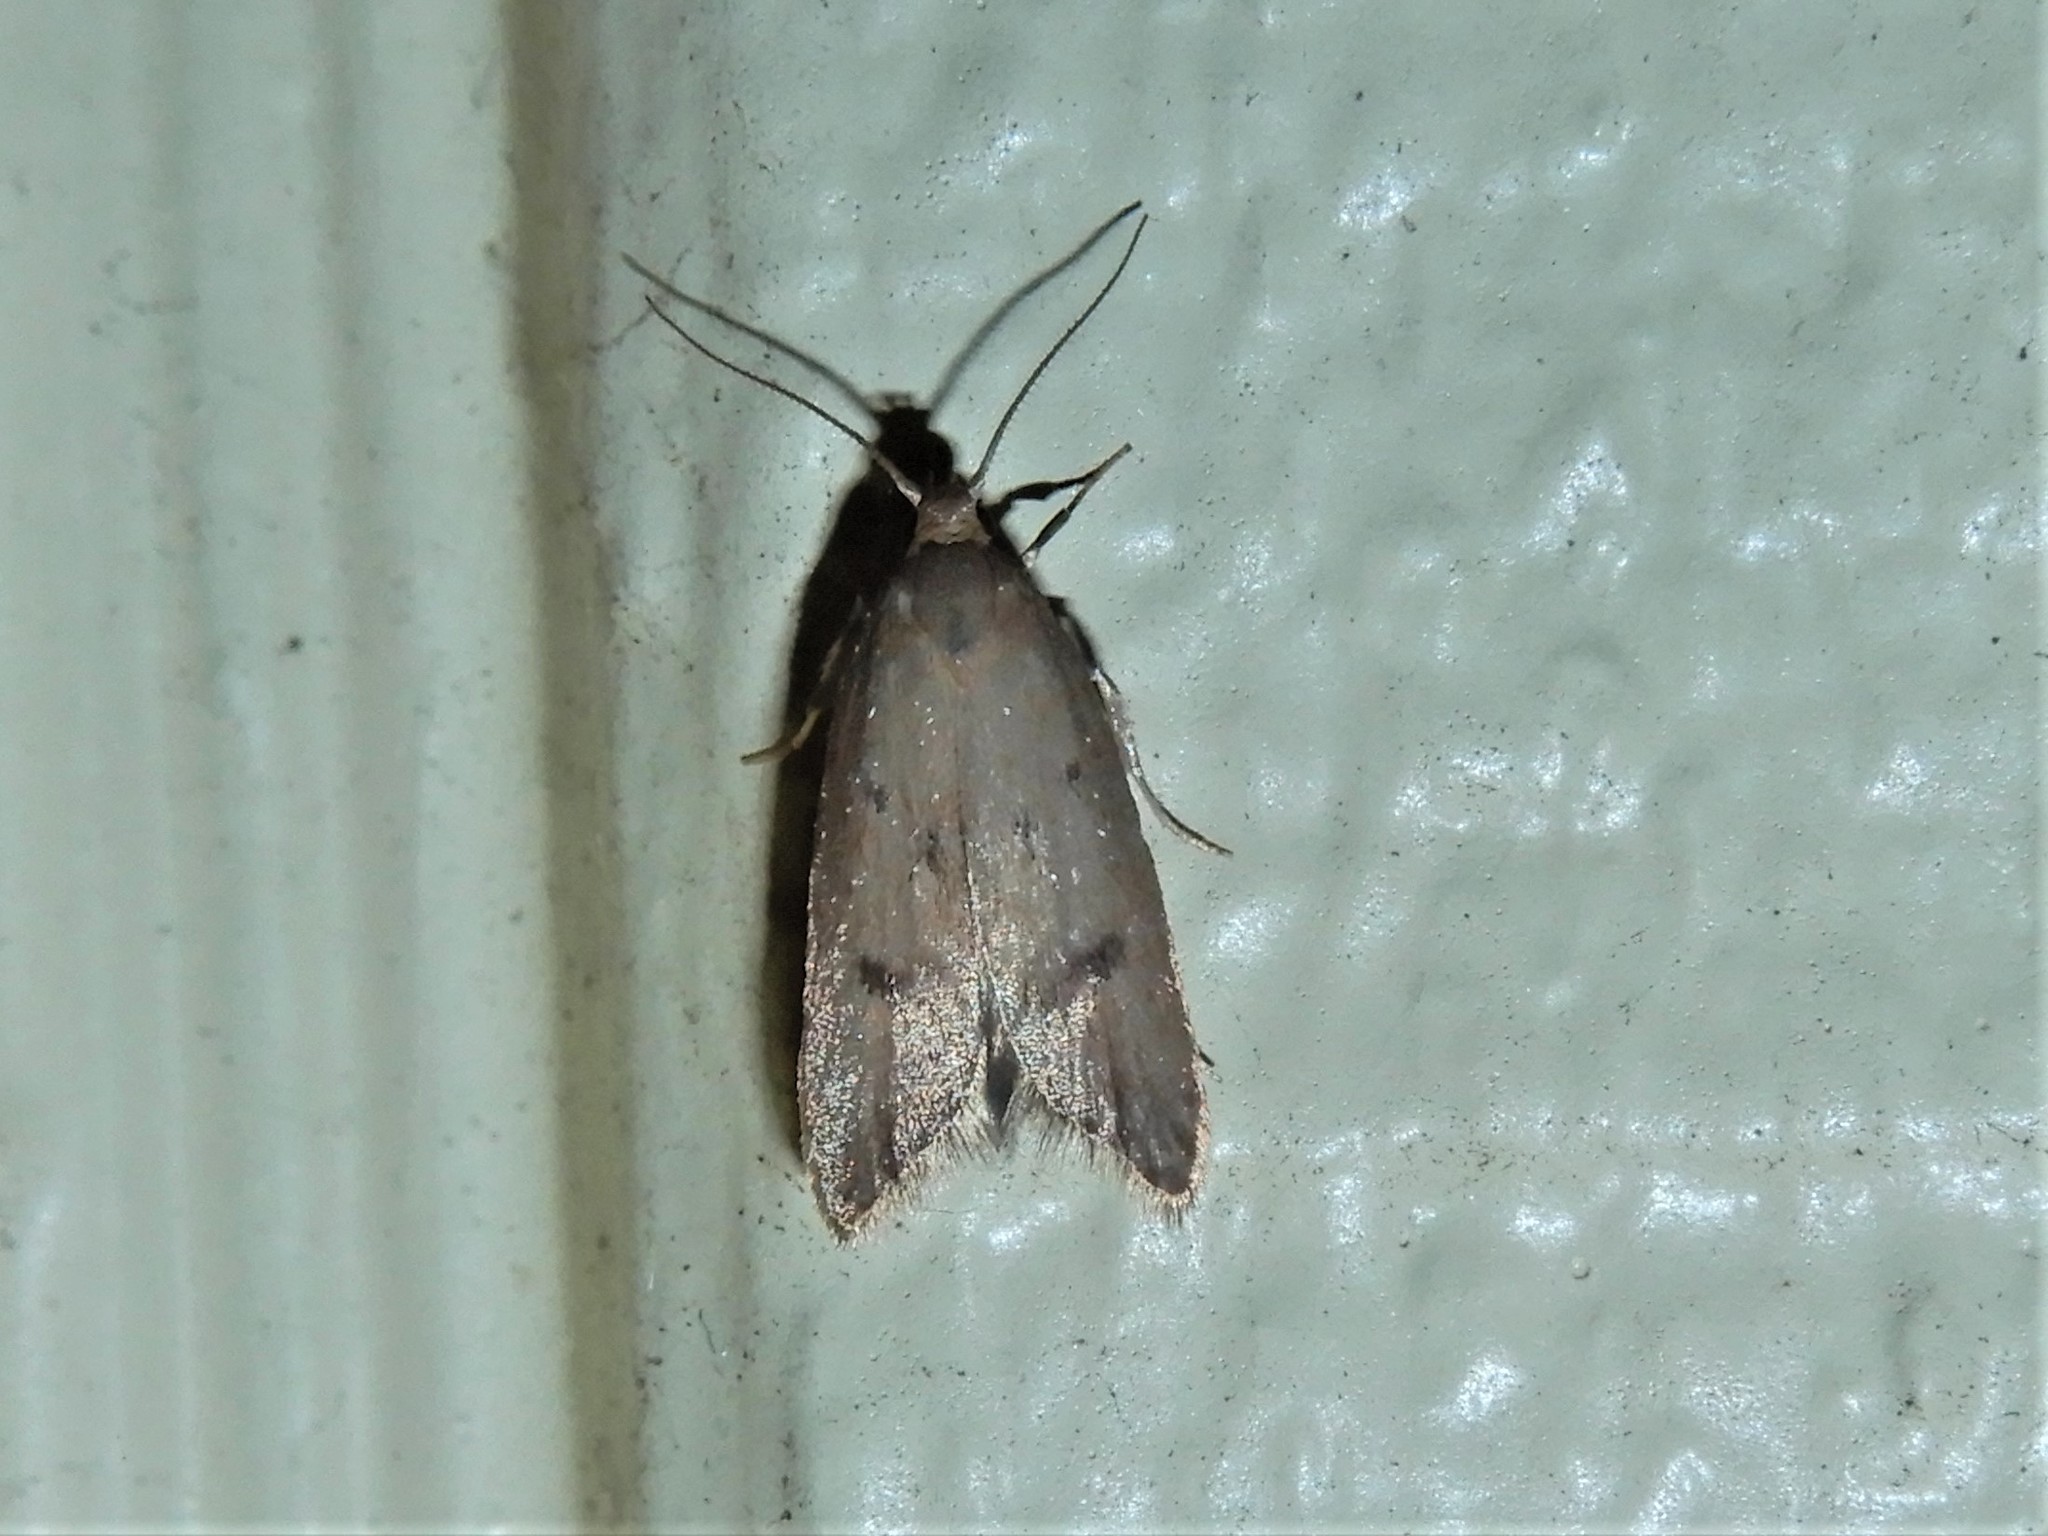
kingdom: Animalia
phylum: Arthropoda
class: Insecta
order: Lepidoptera
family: Oecophoridae
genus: Tachystola
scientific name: Tachystola acroxantha
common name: Ruddy streak
